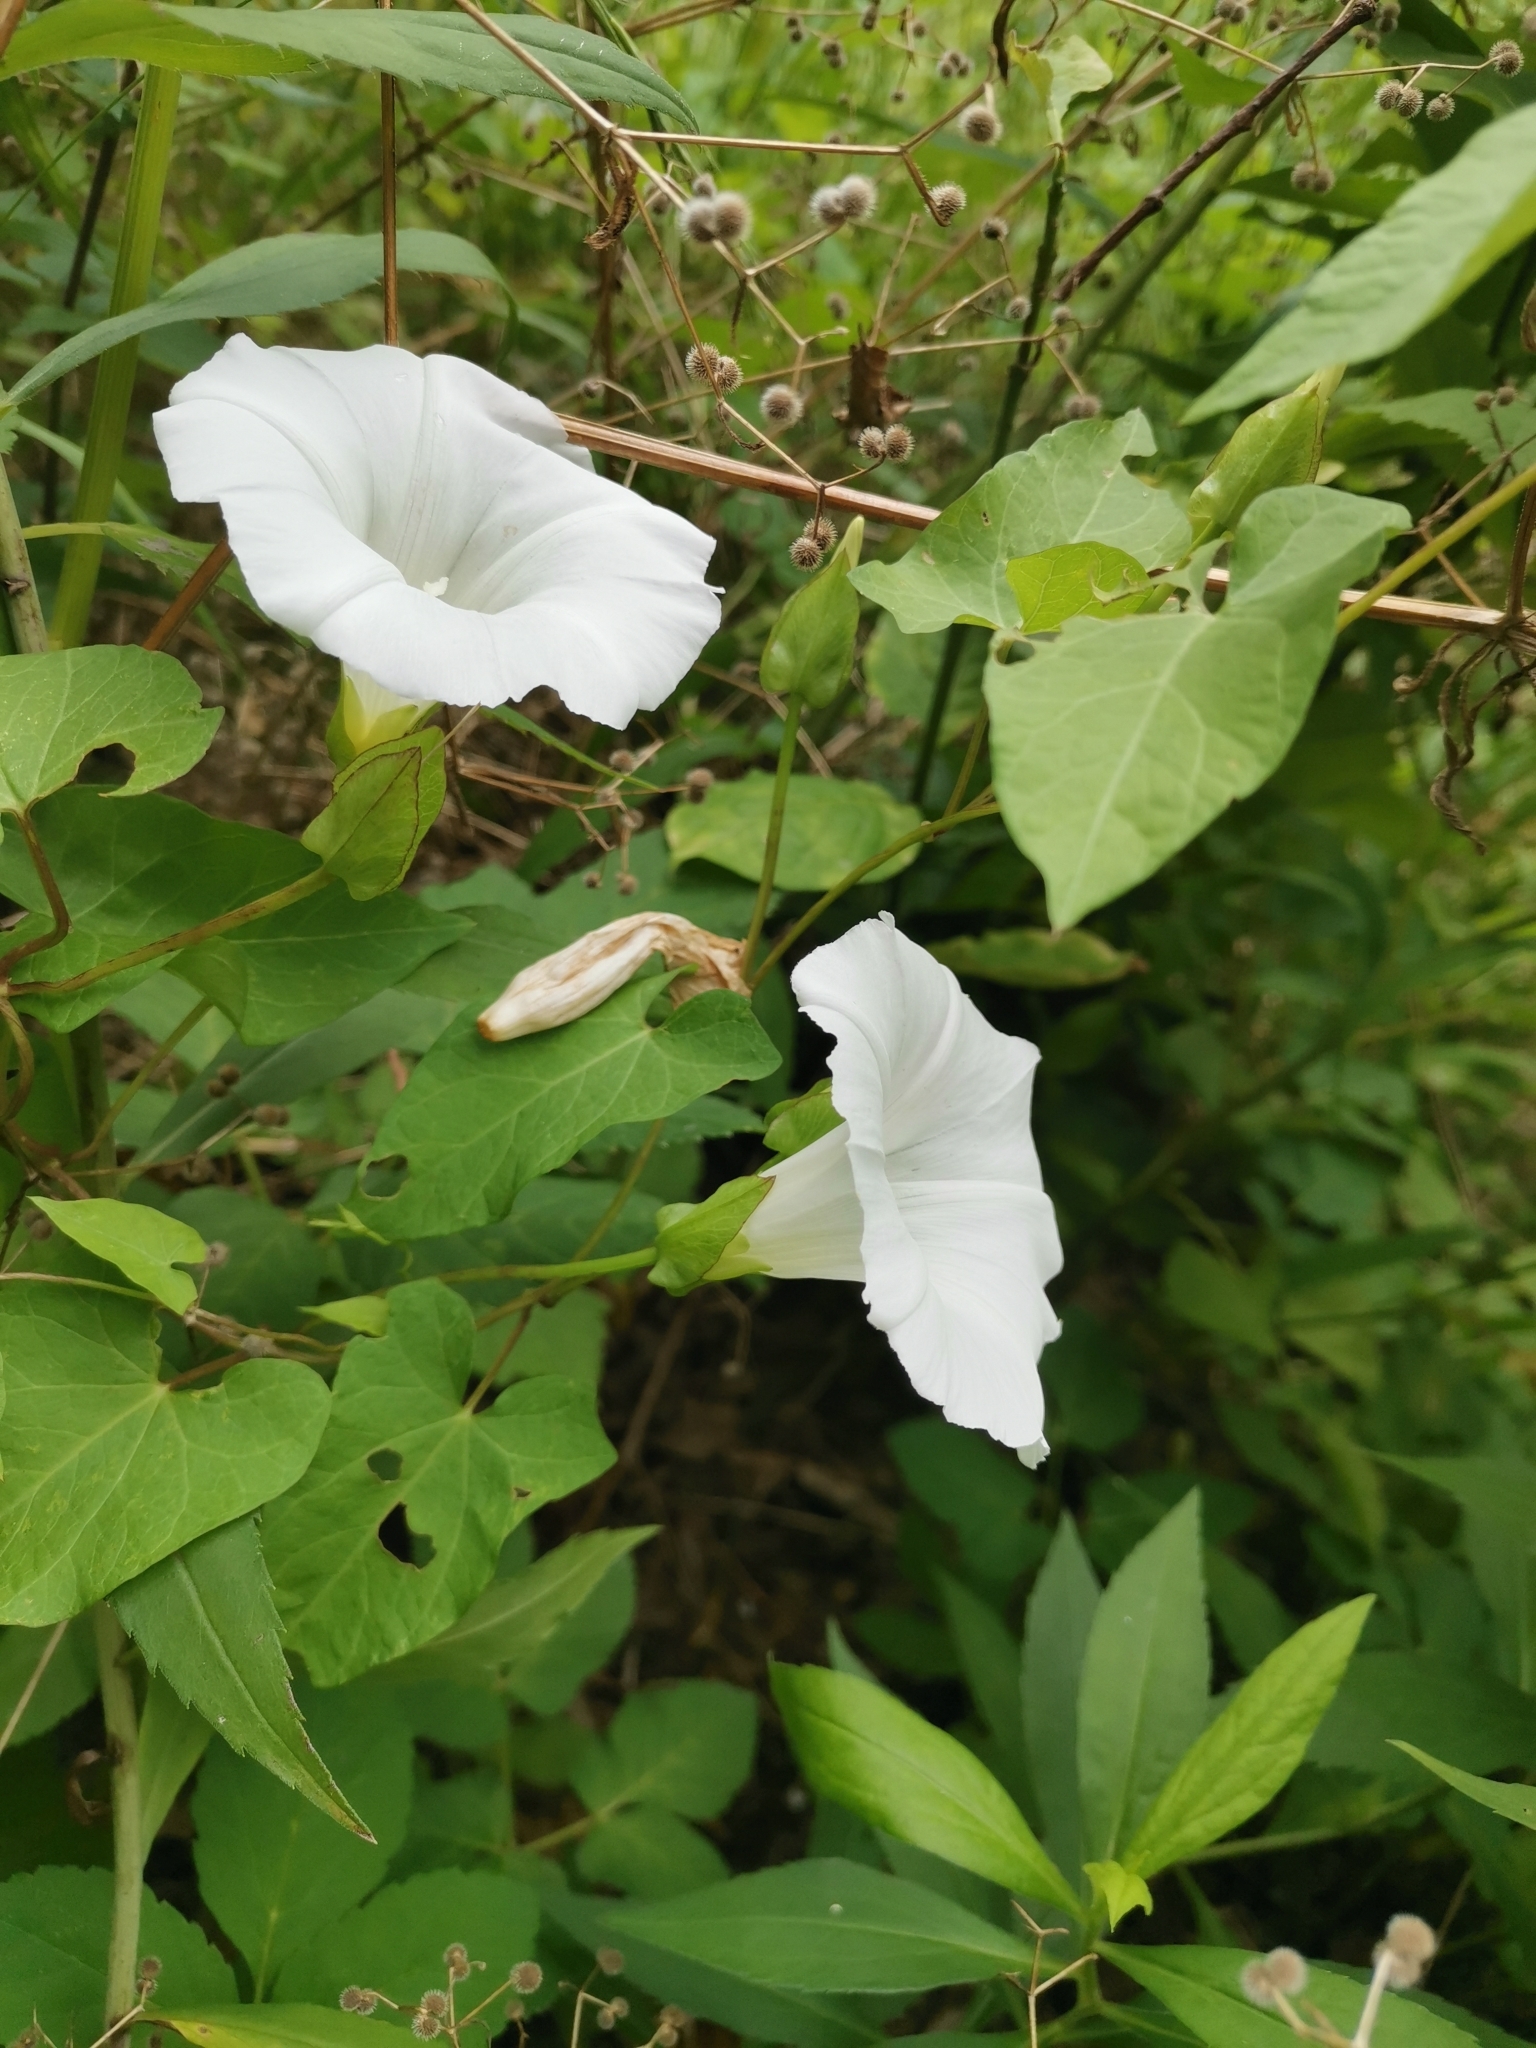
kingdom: Plantae
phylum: Tracheophyta
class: Magnoliopsida
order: Solanales
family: Convolvulaceae
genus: Calystegia
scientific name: Calystegia sepium
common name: Hedge bindweed
